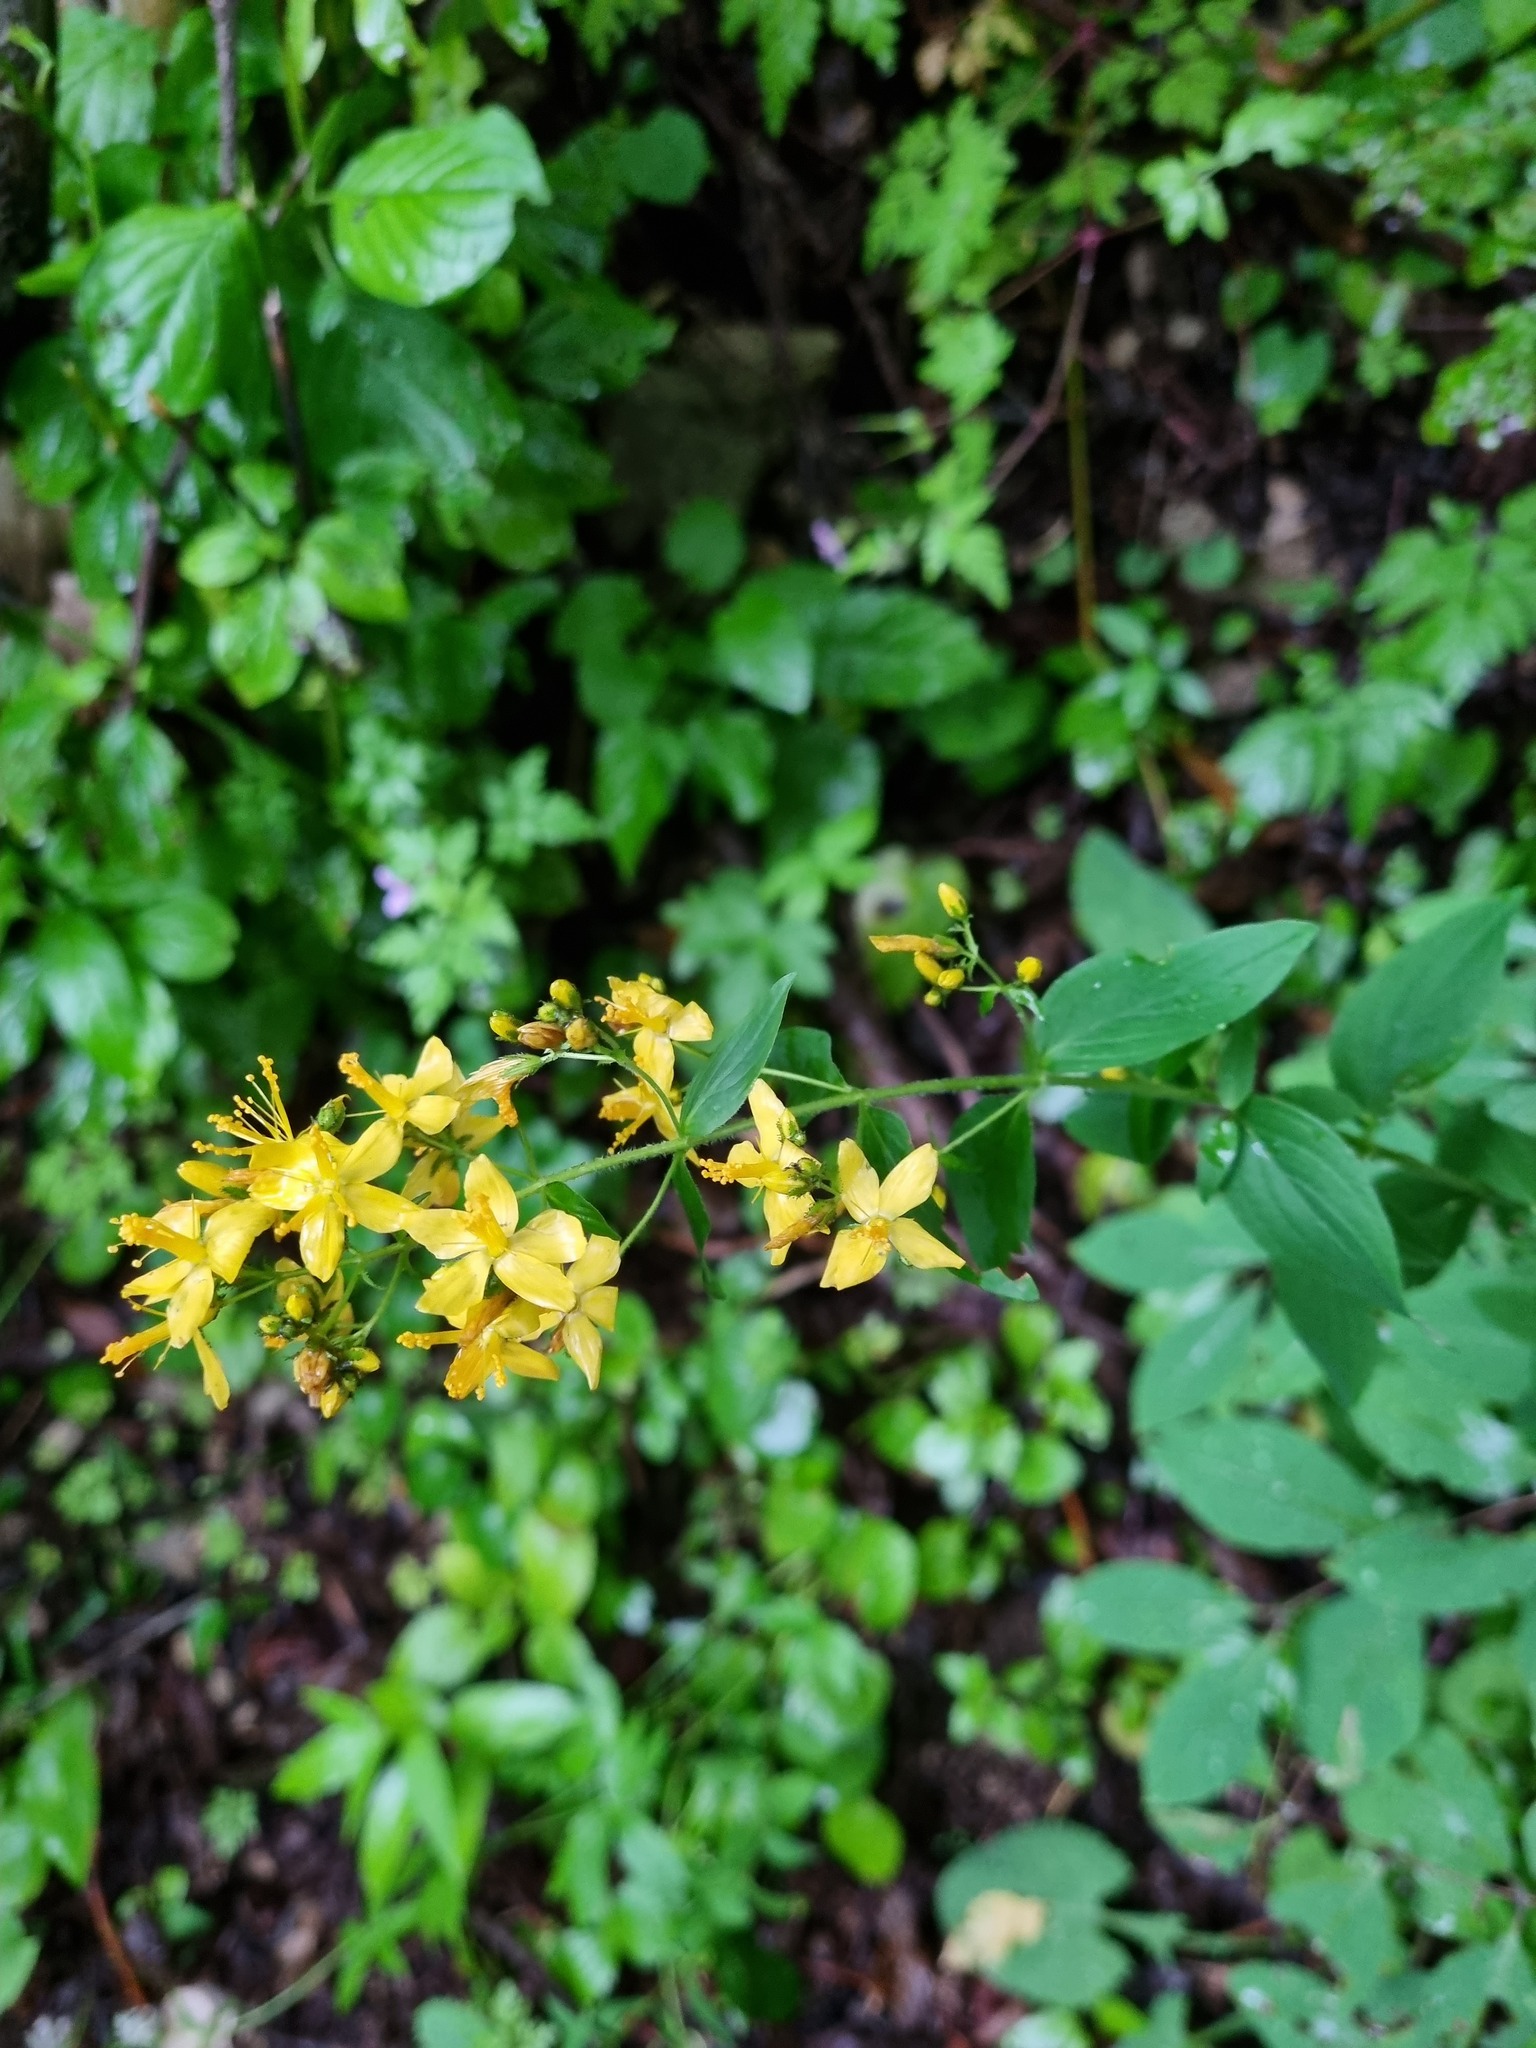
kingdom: Plantae
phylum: Tracheophyta
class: Magnoliopsida
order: Malpighiales
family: Hypericaceae
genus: Hypericum
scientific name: Hypericum hirsutum
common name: Hairy st. john's-wort
